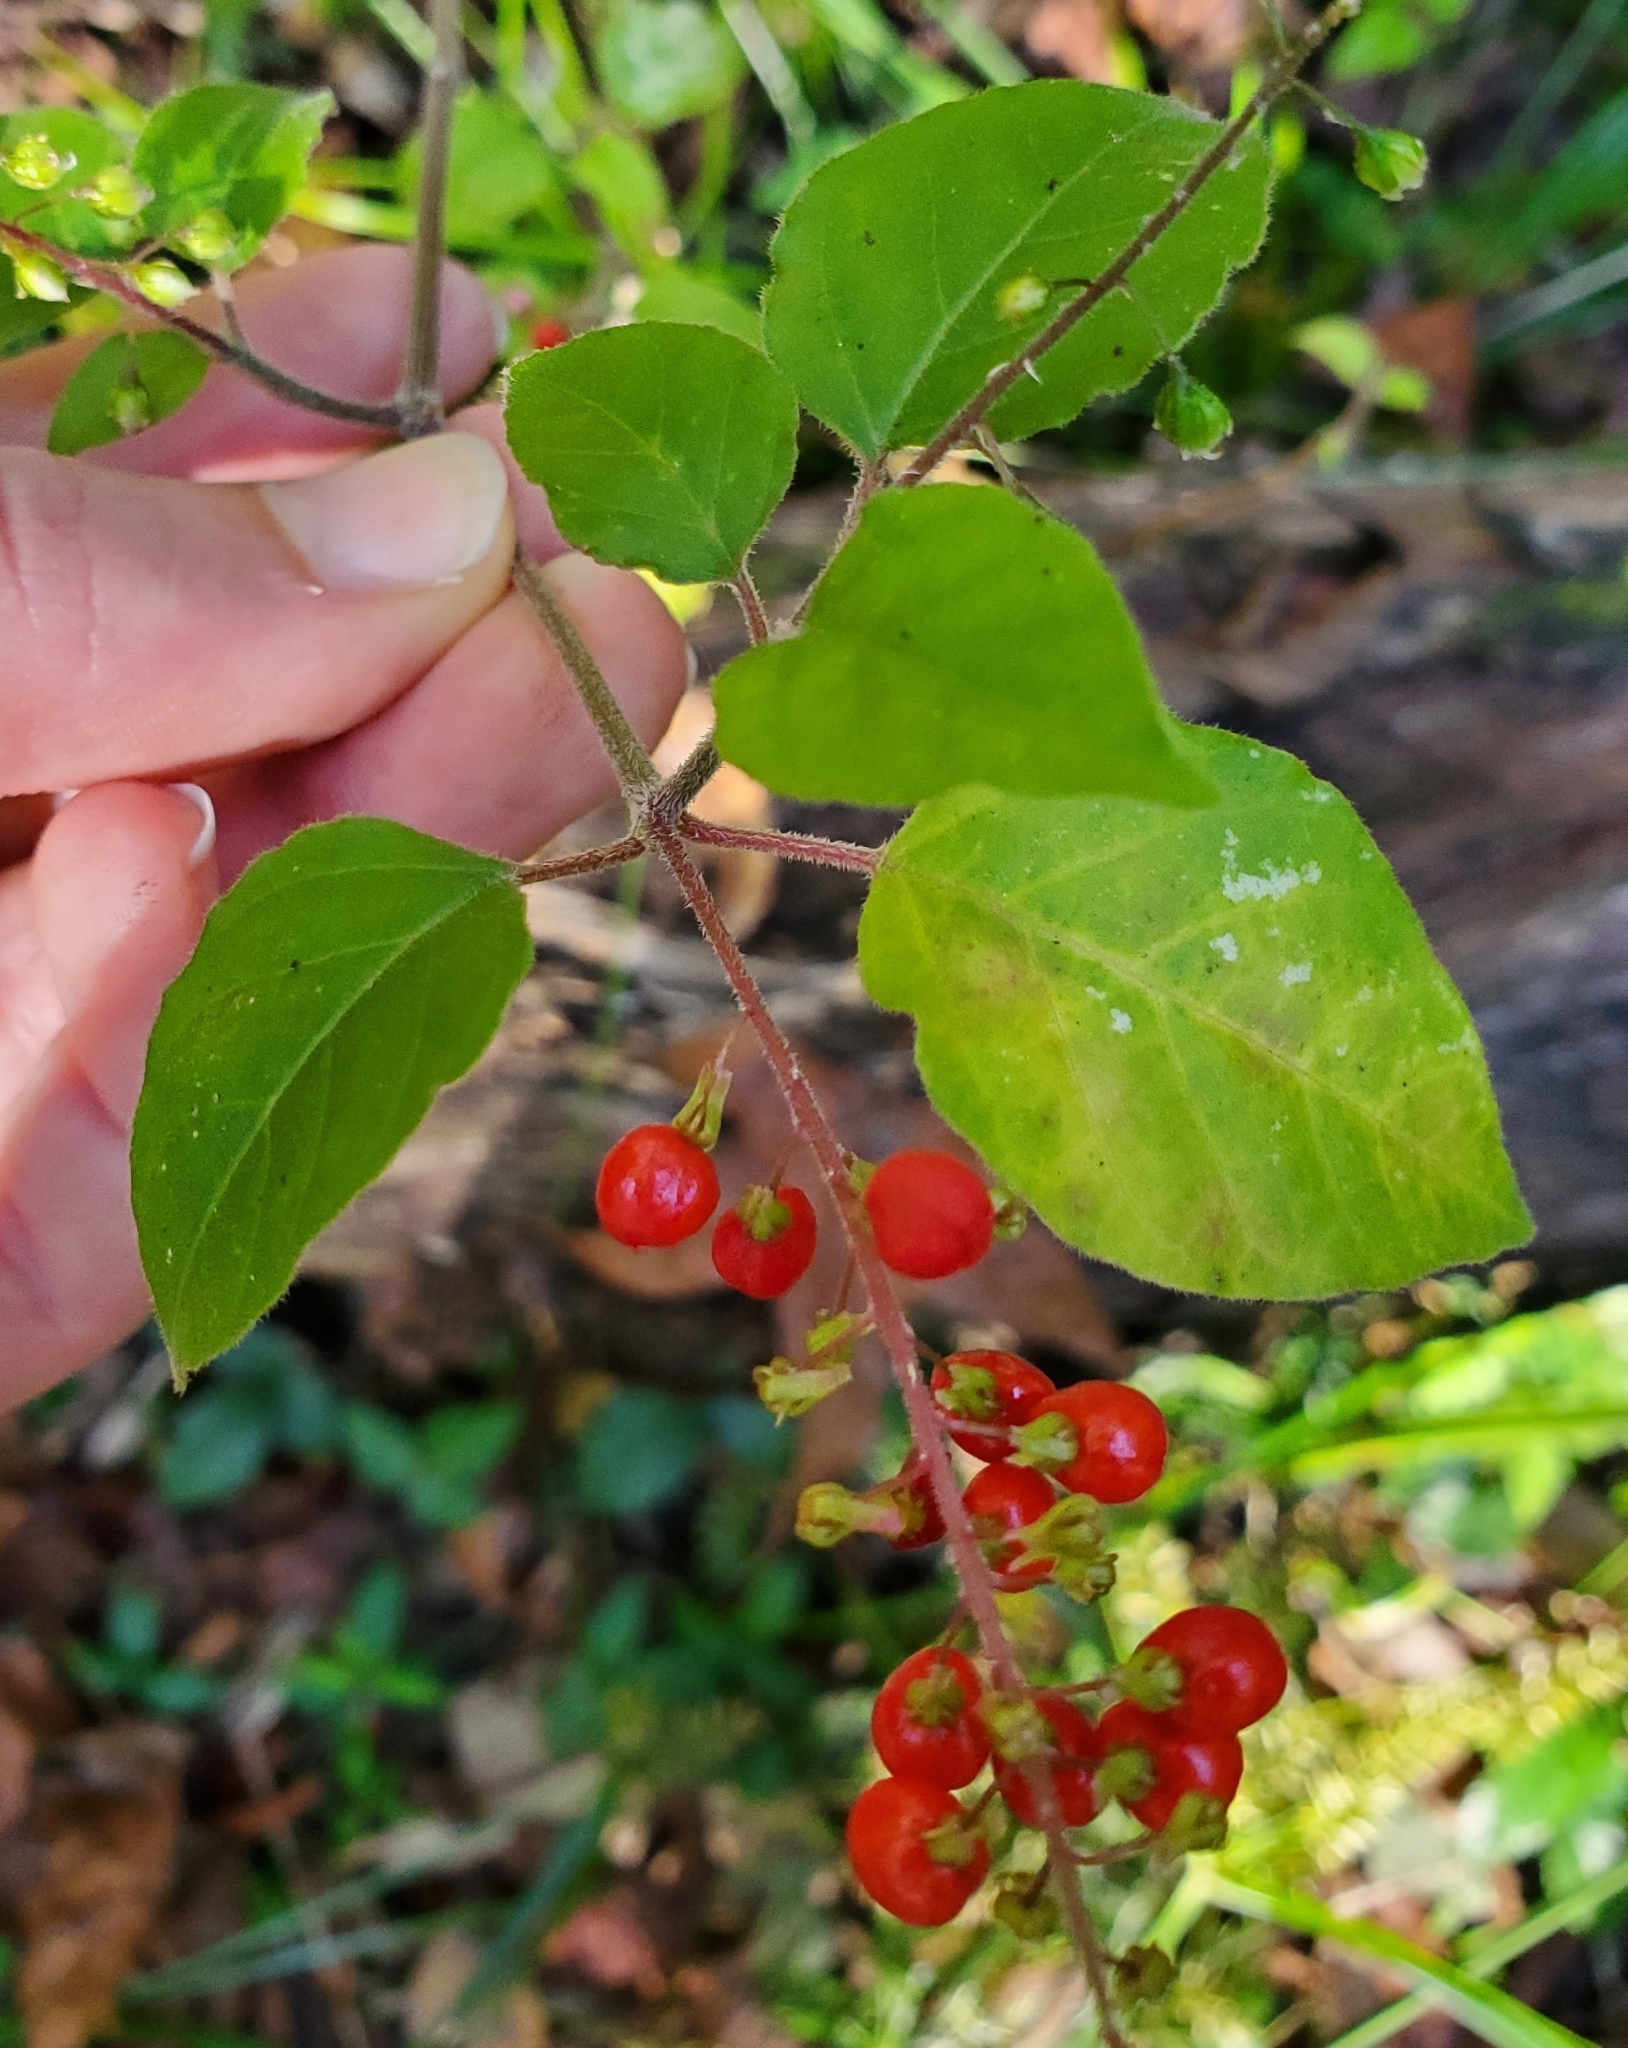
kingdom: Plantae
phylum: Tracheophyta
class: Magnoliopsida
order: Caryophyllales
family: Phytolaccaceae
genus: Rivina
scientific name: Rivina humilis
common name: Rougeplant
